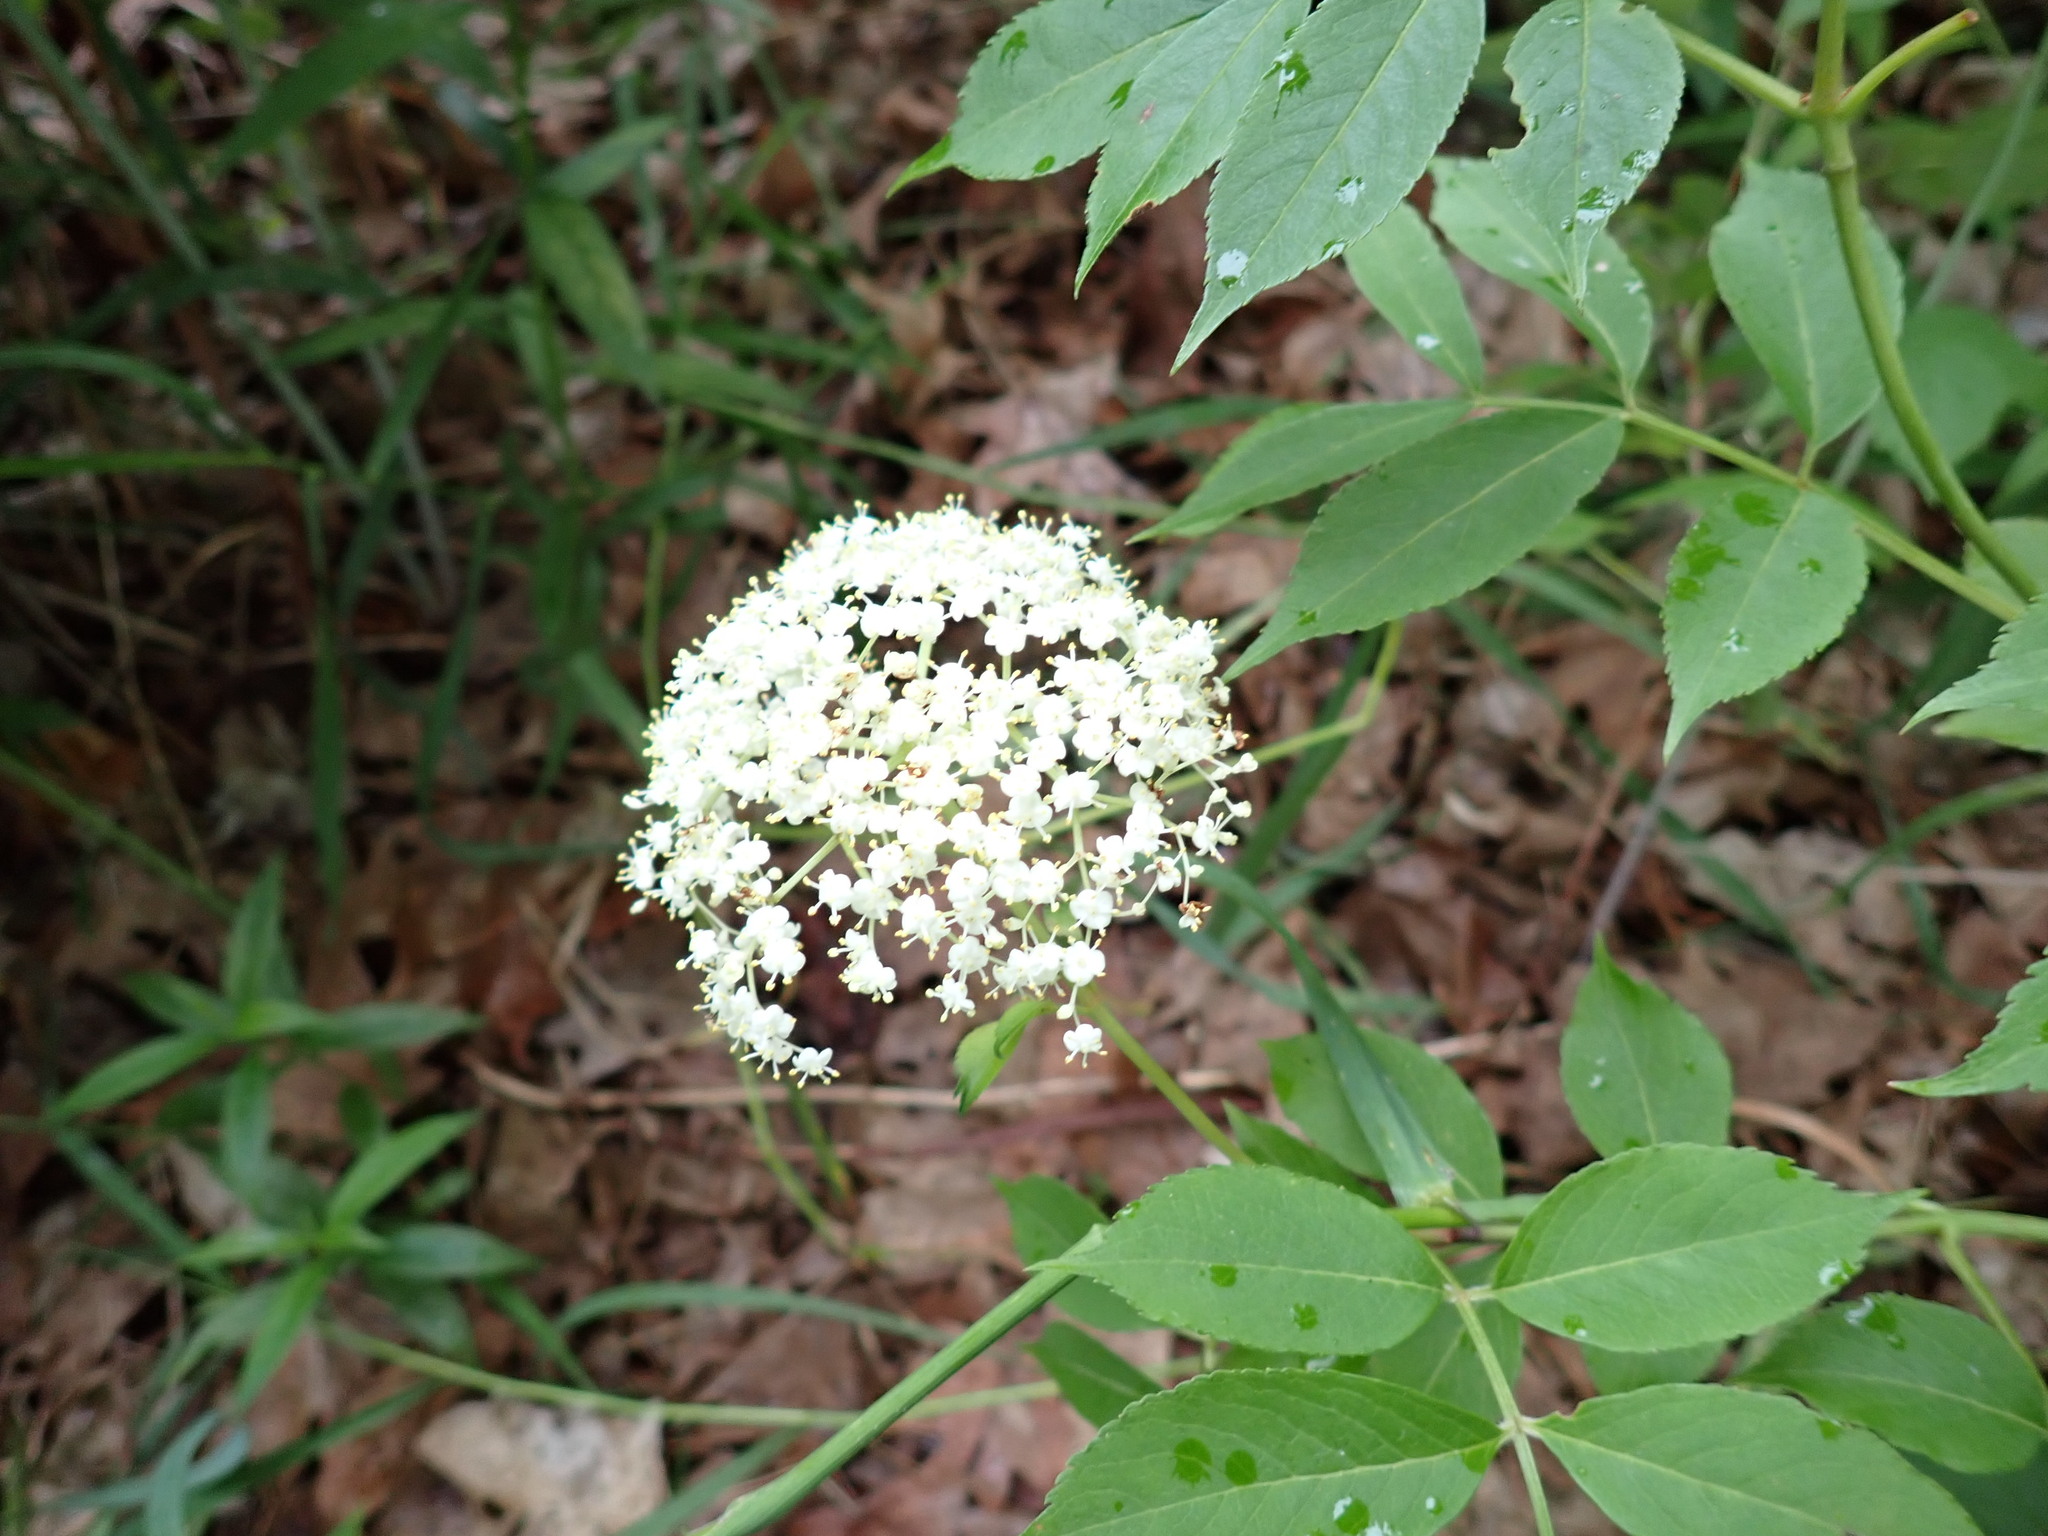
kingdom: Plantae
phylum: Tracheophyta
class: Magnoliopsida
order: Dipsacales
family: Viburnaceae
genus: Sambucus
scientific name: Sambucus canadensis
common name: American elder
